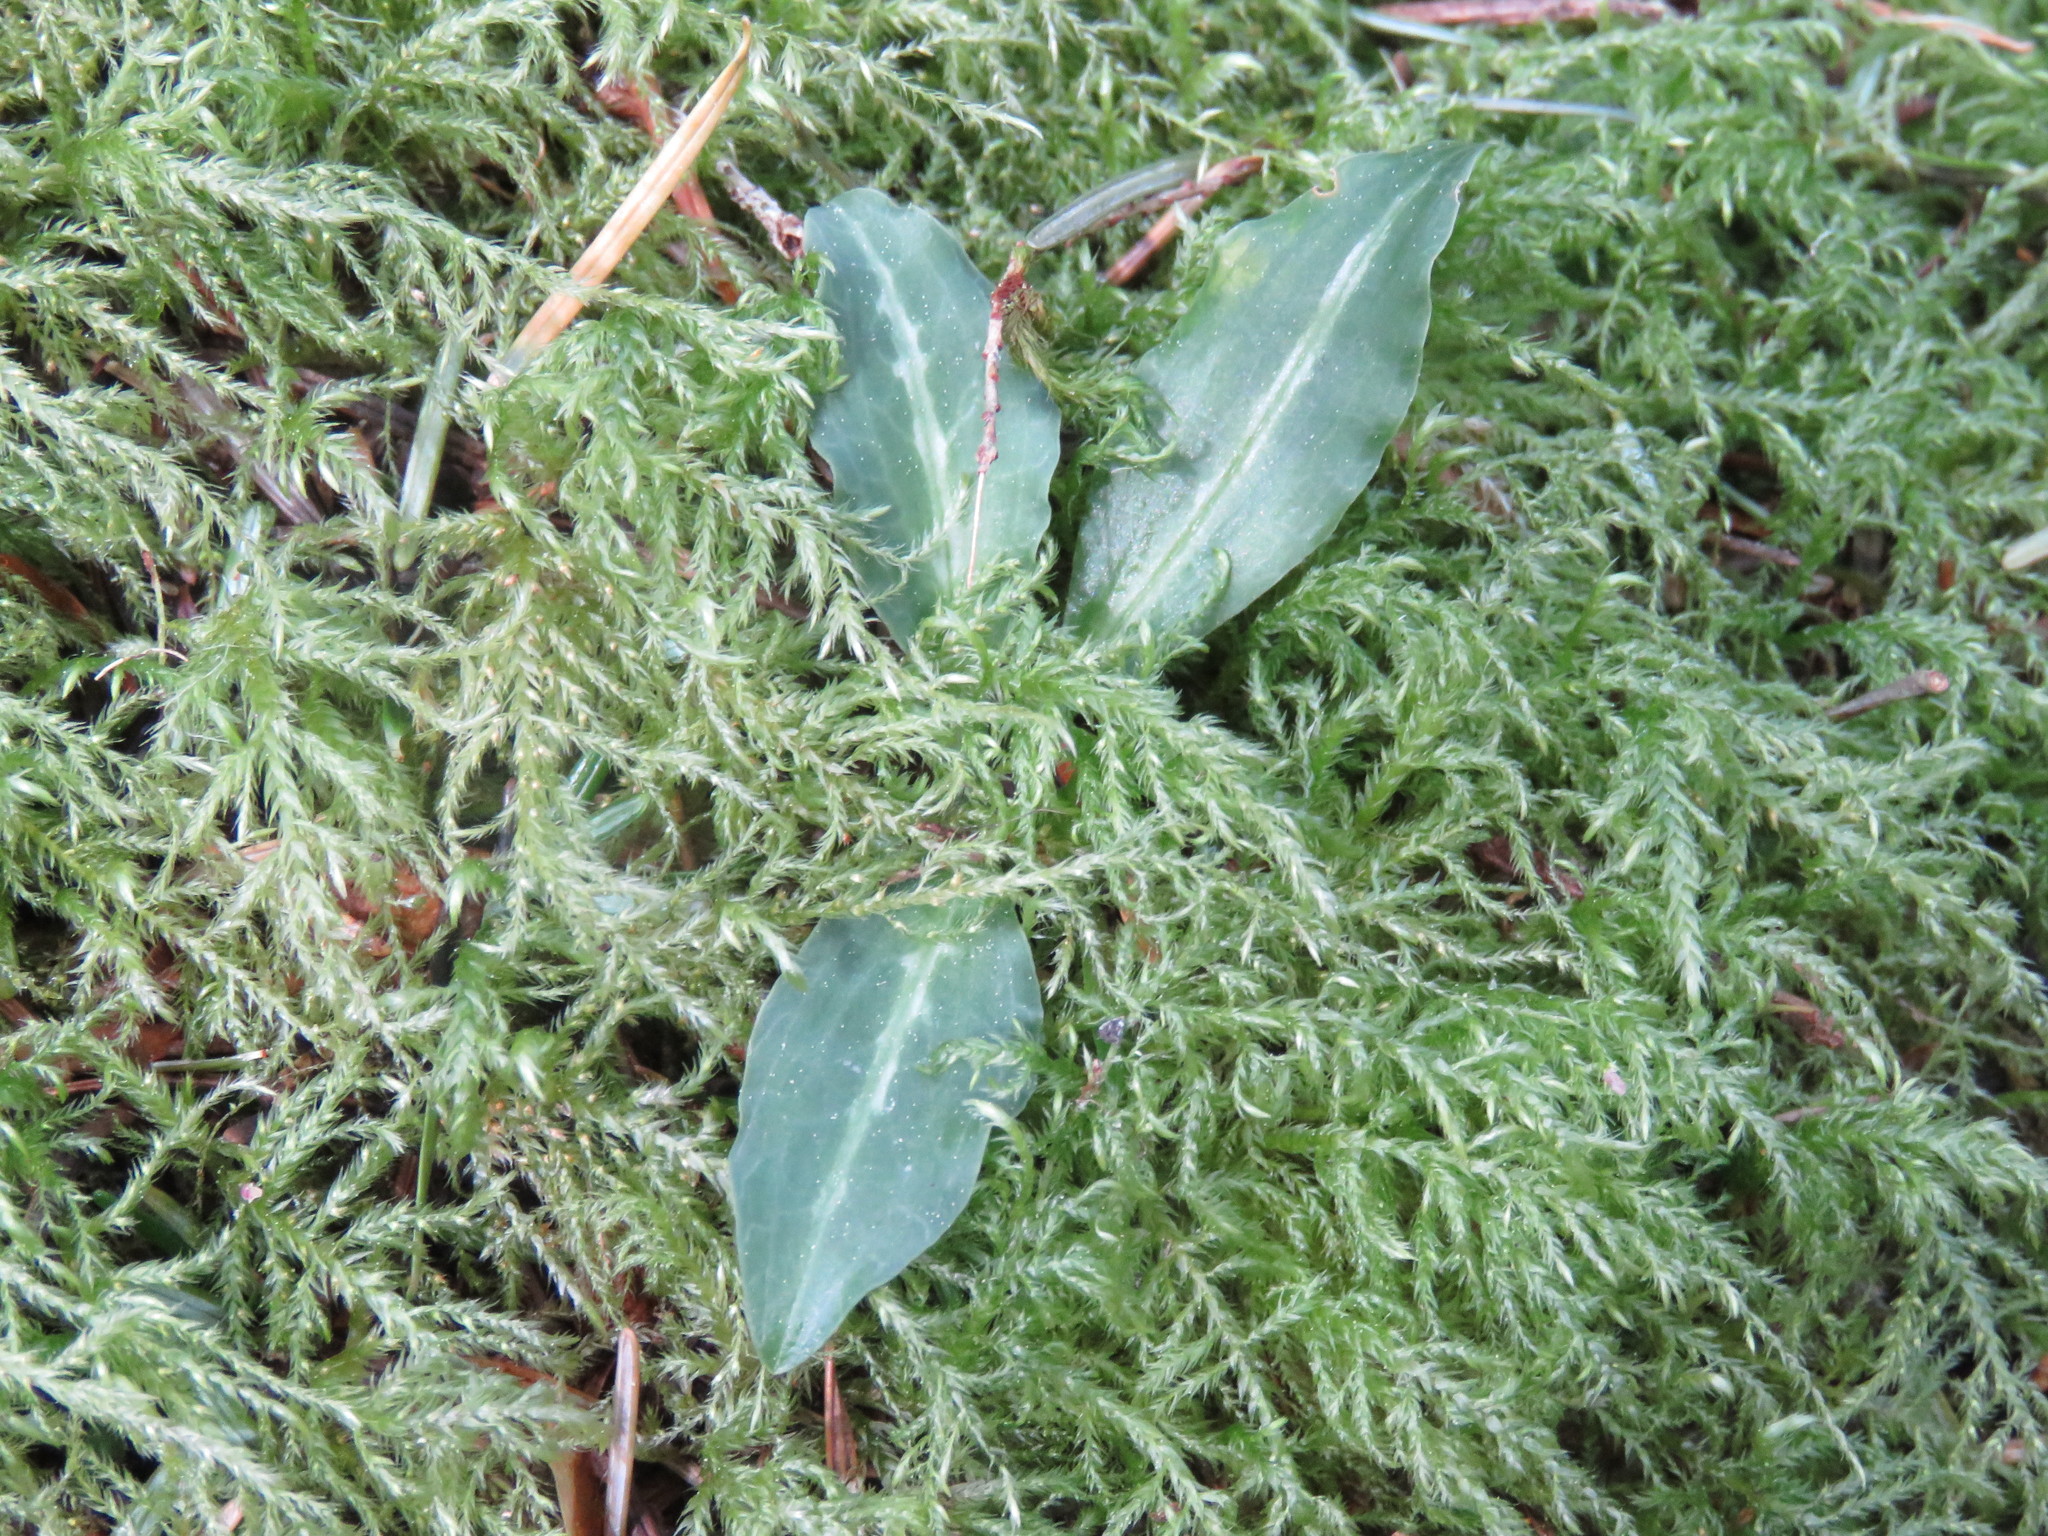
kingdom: Plantae
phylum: Tracheophyta
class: Liliopsida
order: Asparagales
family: Orchidaceae
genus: Goodyera
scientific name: Goodyera oblongifolia
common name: Giant rattlesnake-plantain
